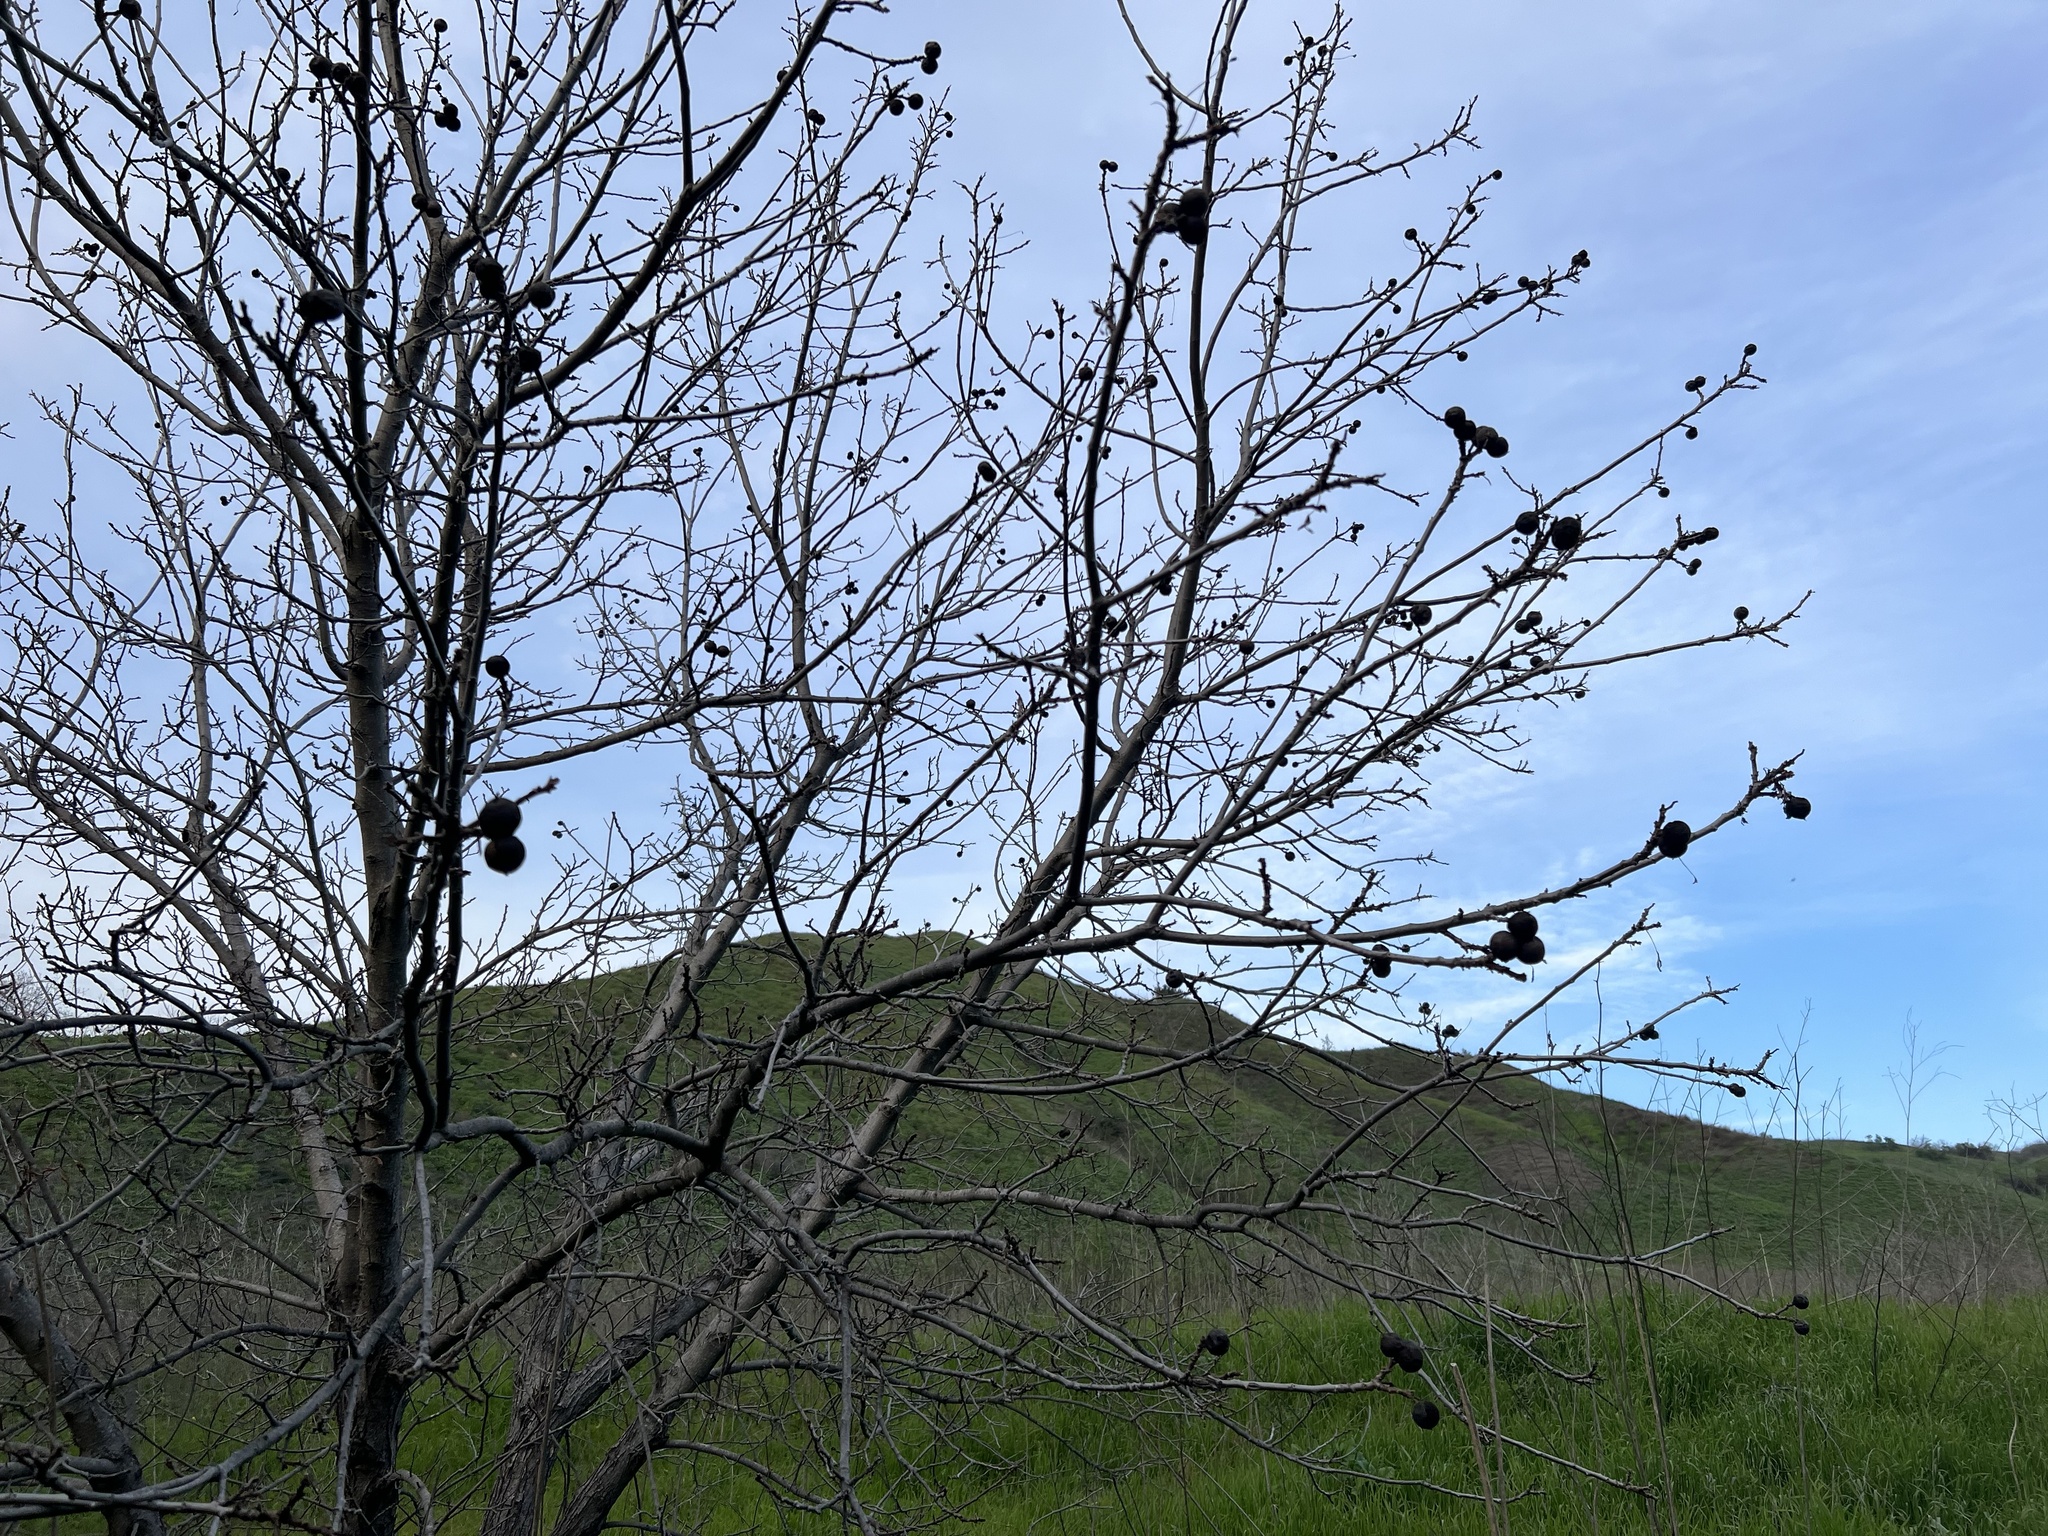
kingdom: Plantae
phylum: Tracheophyta
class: Magnoliopsida
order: Fagales
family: Juglandaceae
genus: Juglans
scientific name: Juglans californica
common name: Southern california black walnut
